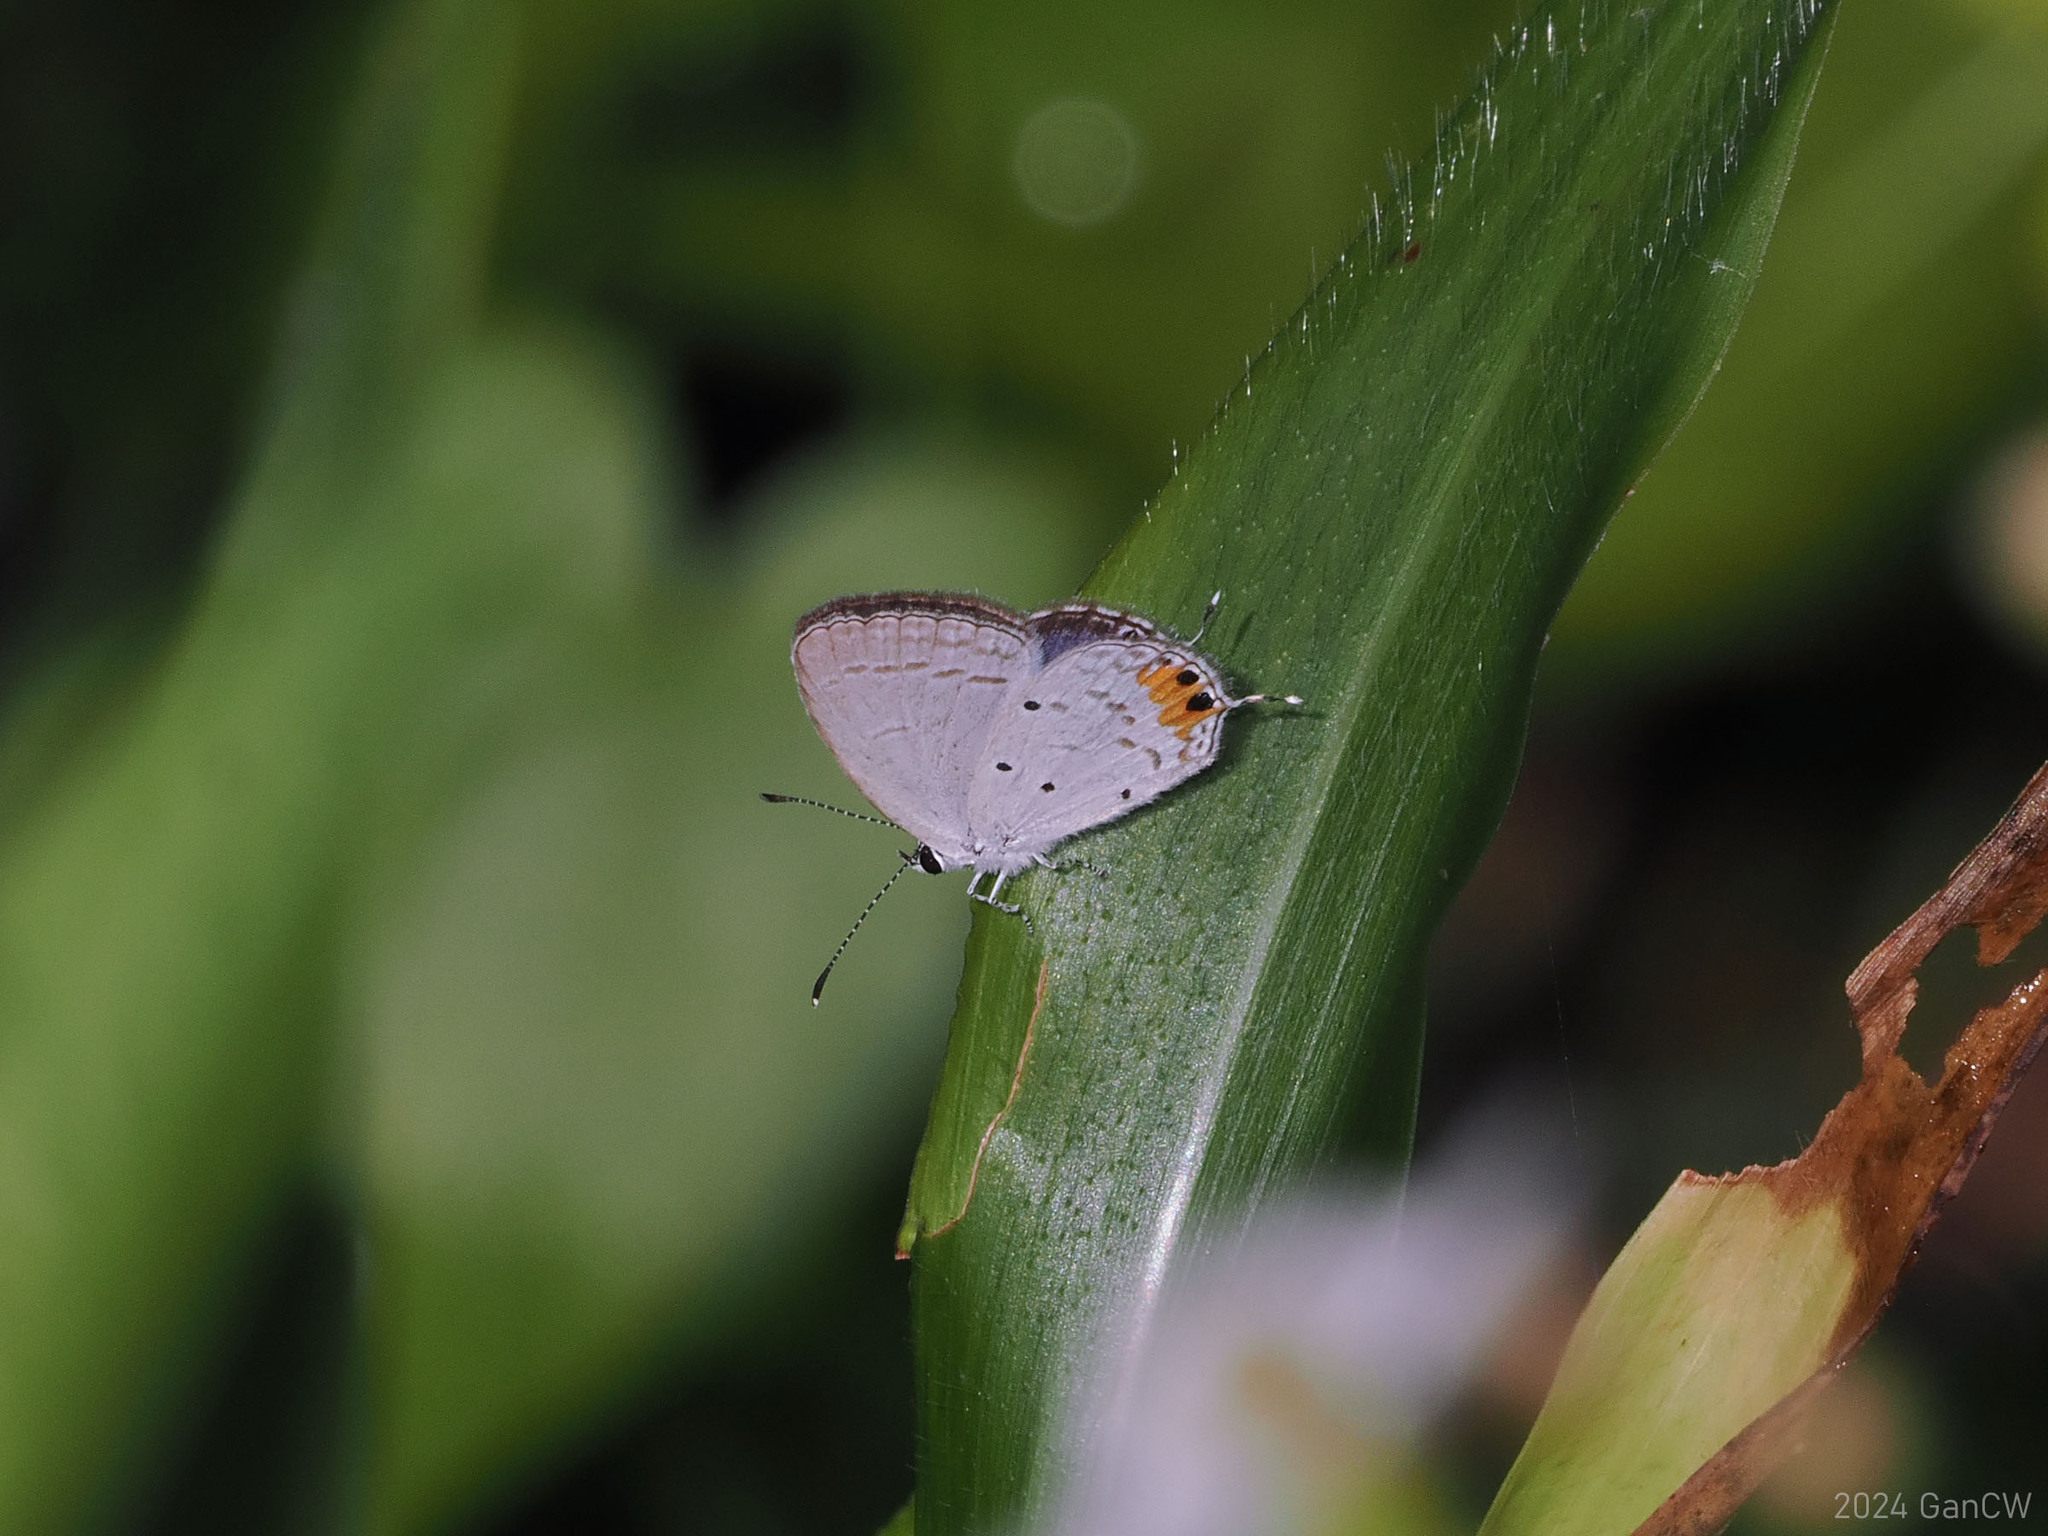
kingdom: Animalia
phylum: Arthropoda
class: Insecta
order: Lepidoptera
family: Lycaenidae
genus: Everes
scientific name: Everes lacturnus
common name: Orange-tipped pea-blue
